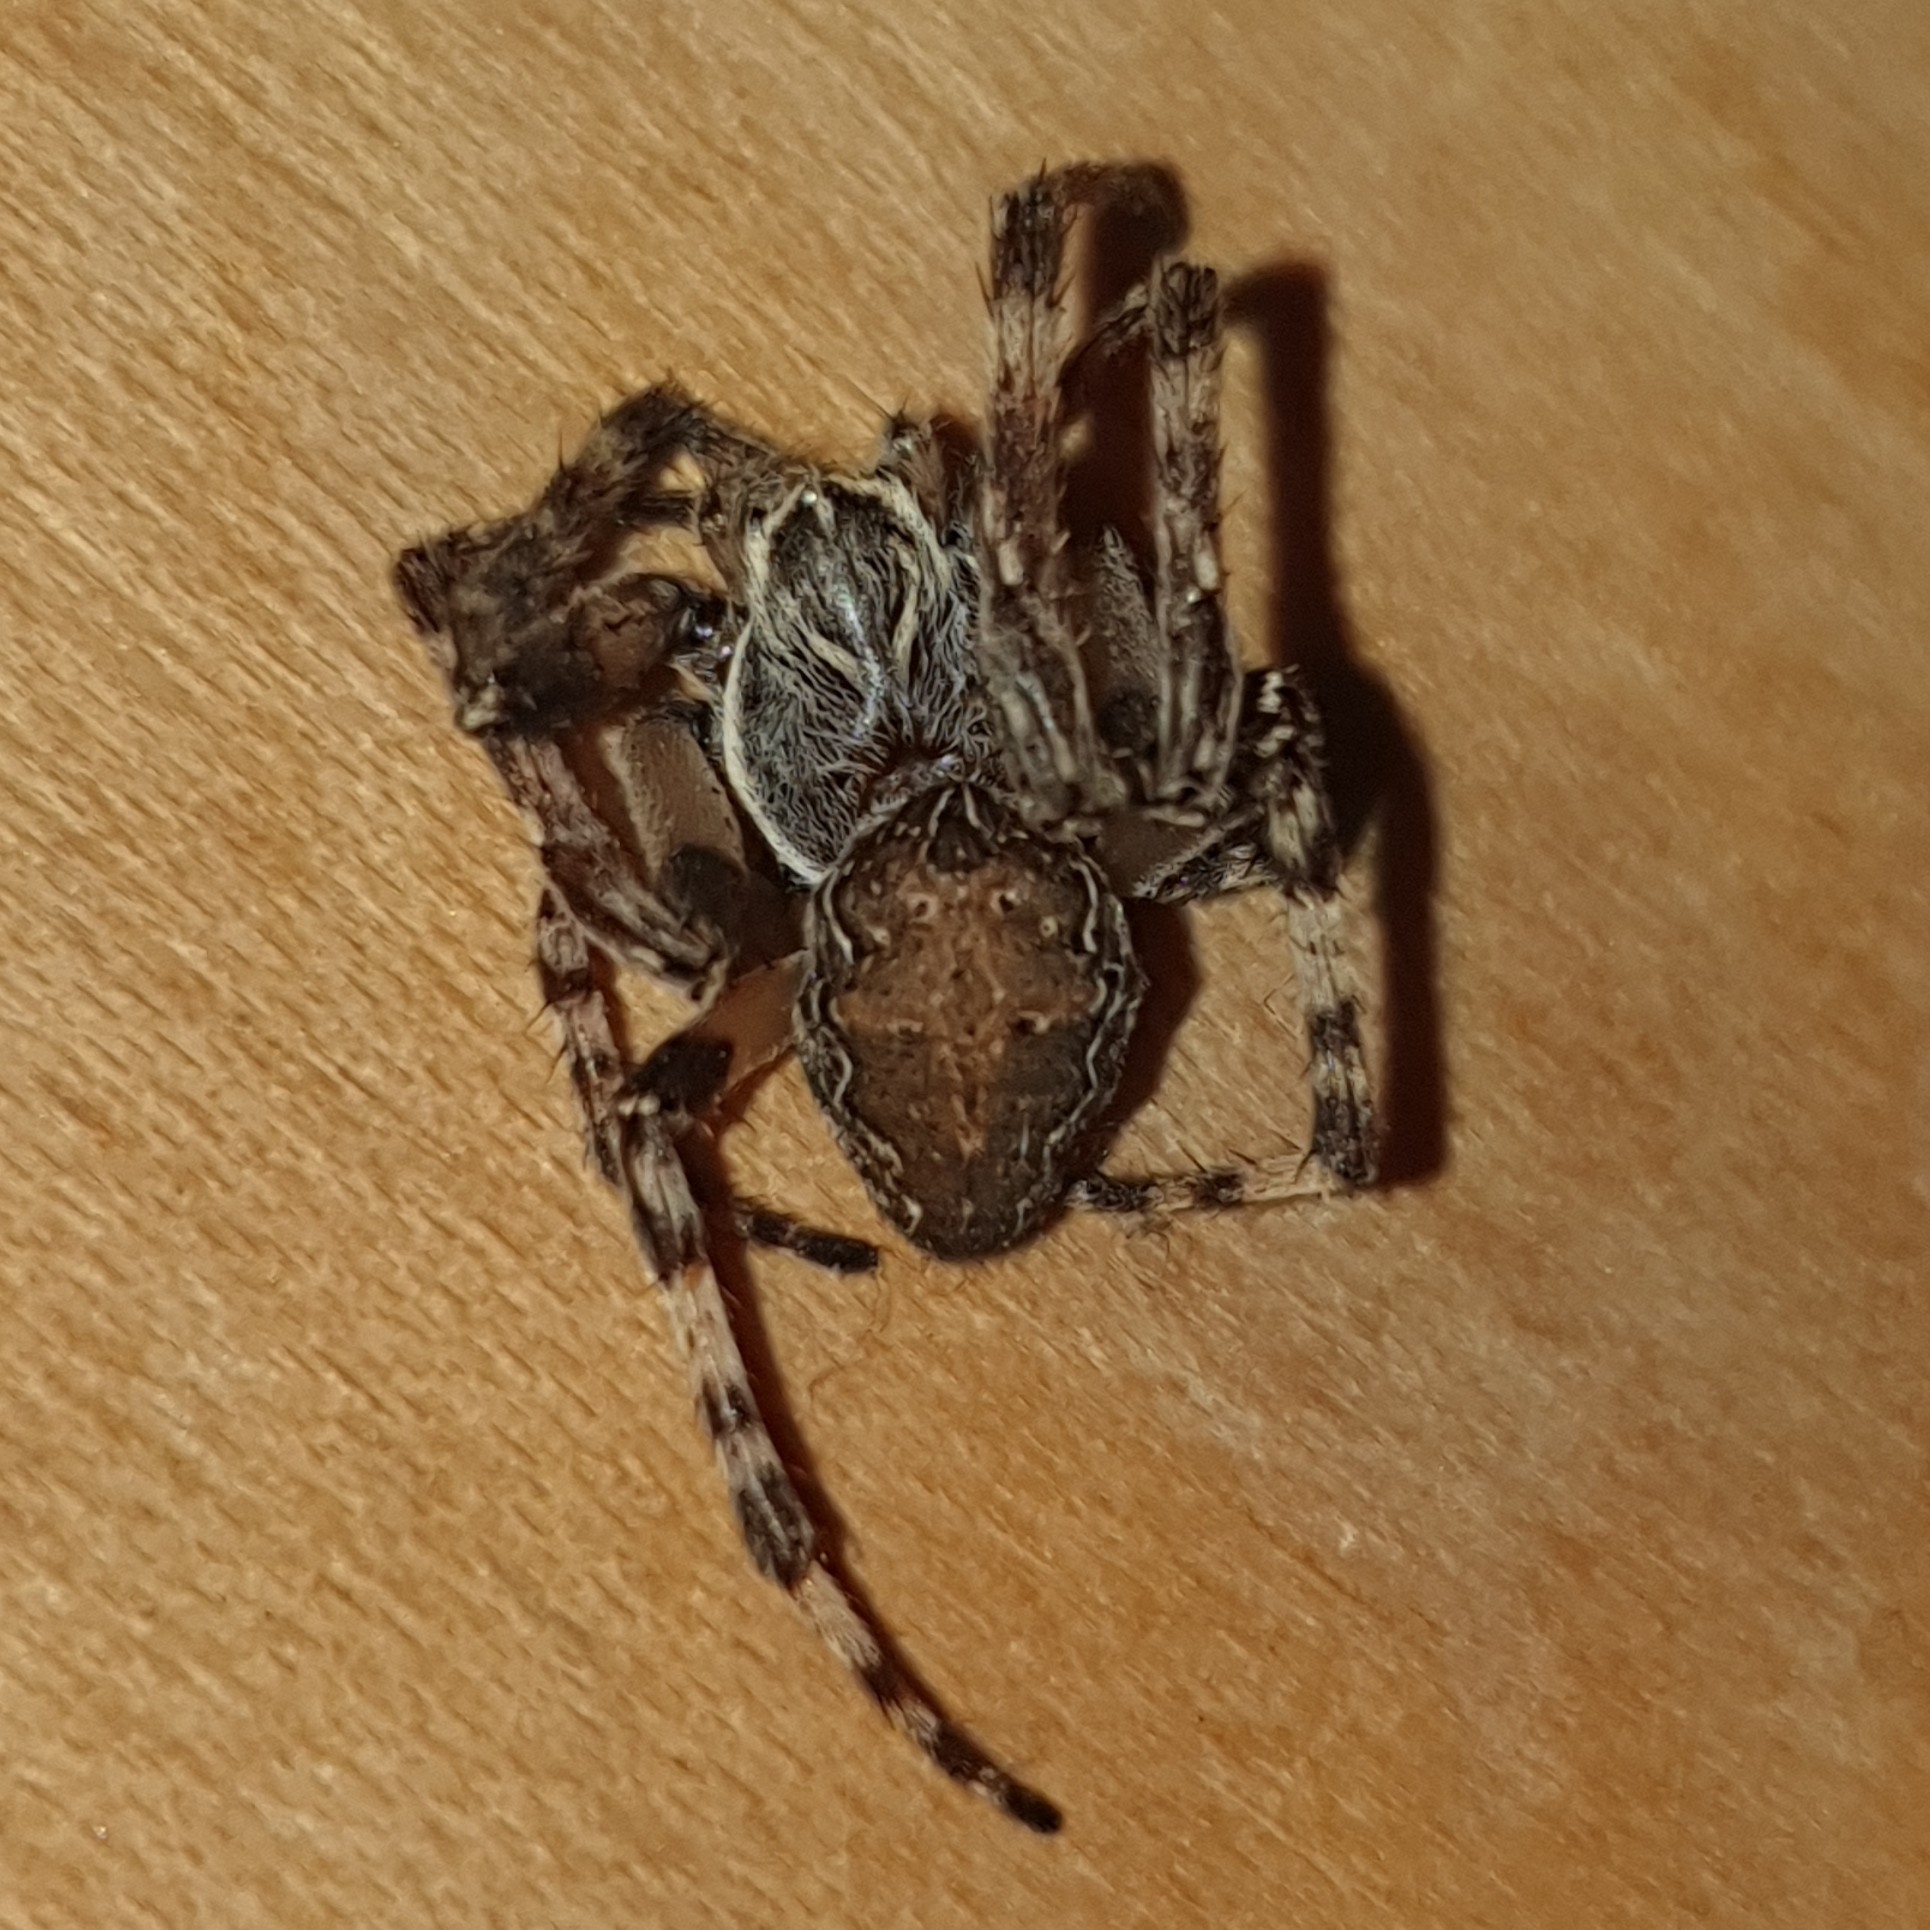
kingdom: Animalia
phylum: Arthropoda
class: Arachnida
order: Araneae
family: Araneidae
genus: Larinioides
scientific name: Larinioides sclopetarius
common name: Bridge orbweaver
